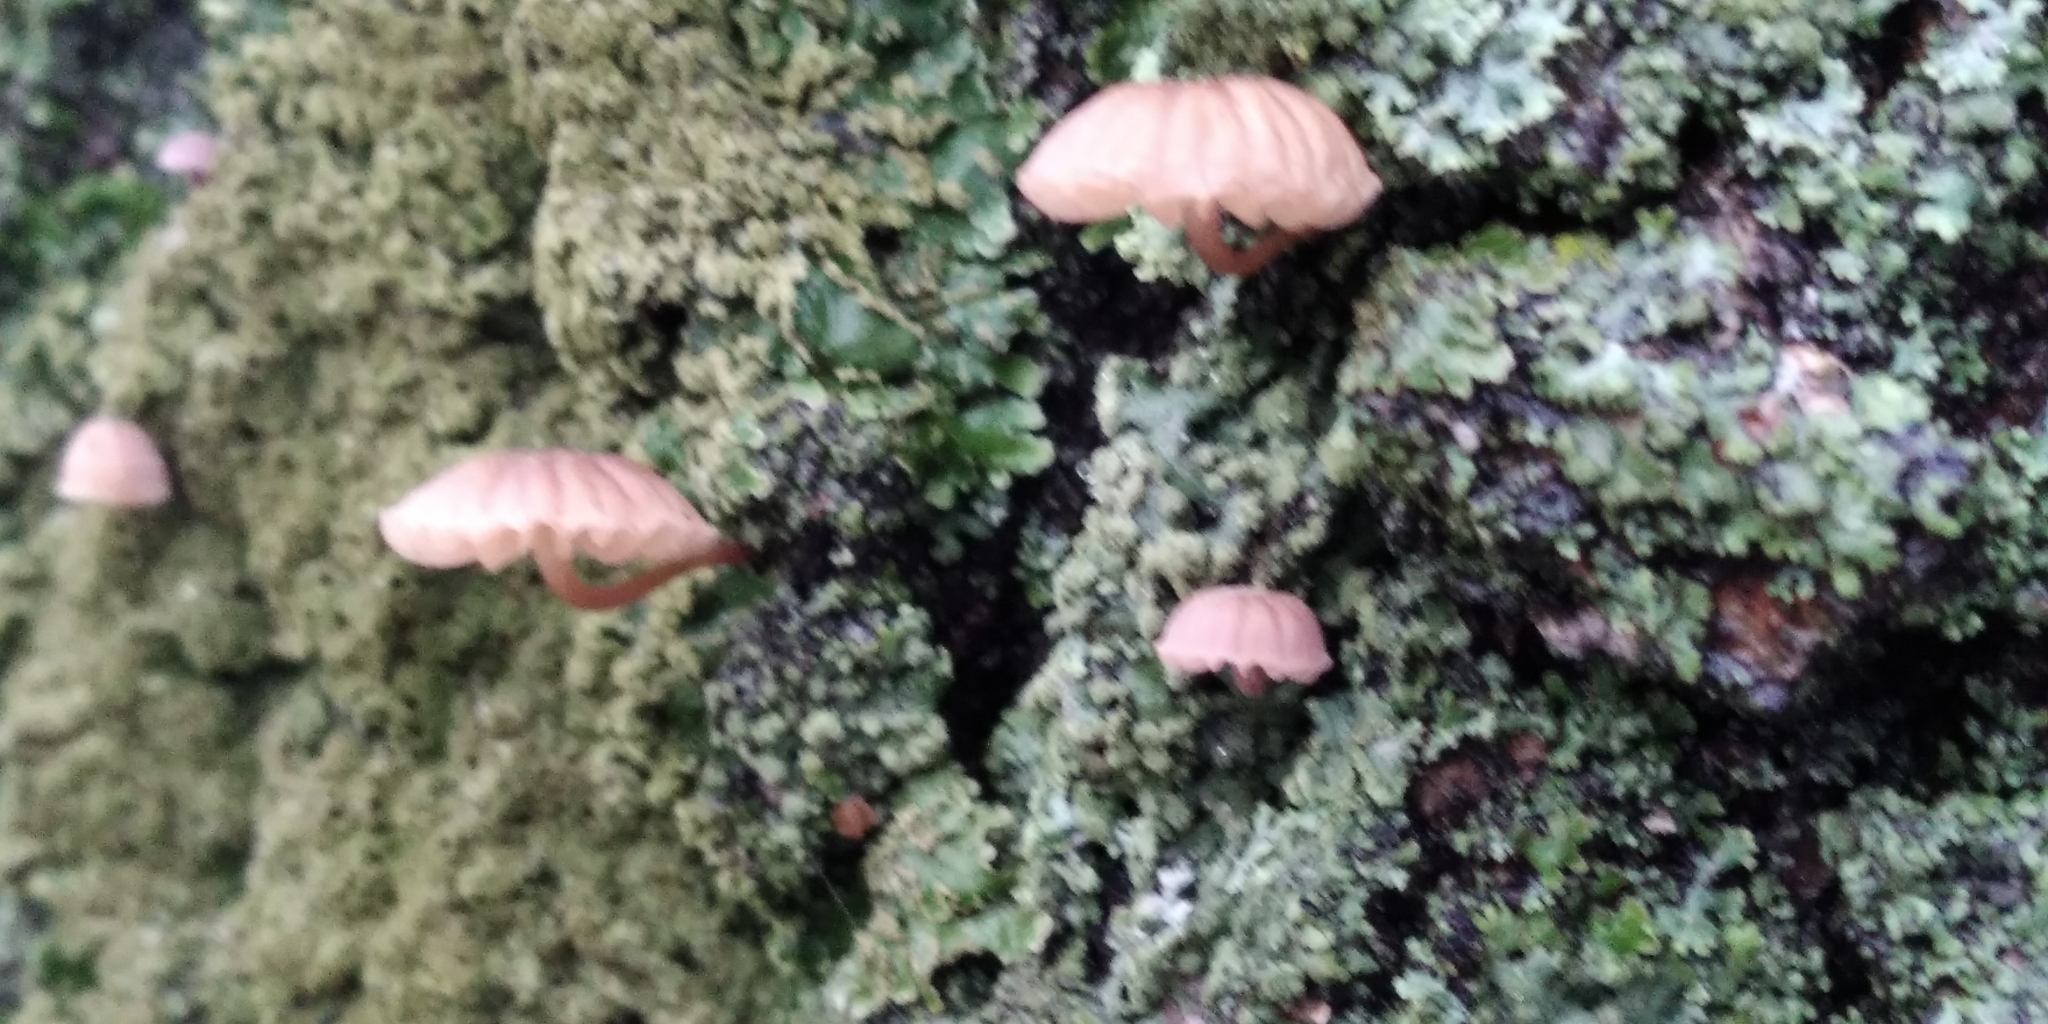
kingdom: Fungi
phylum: Basidiomycota
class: Agaricomycetes
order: Agaricales
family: Mycenaceae
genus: Mycena
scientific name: Mycena meliigena
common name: Mauve bonnet
